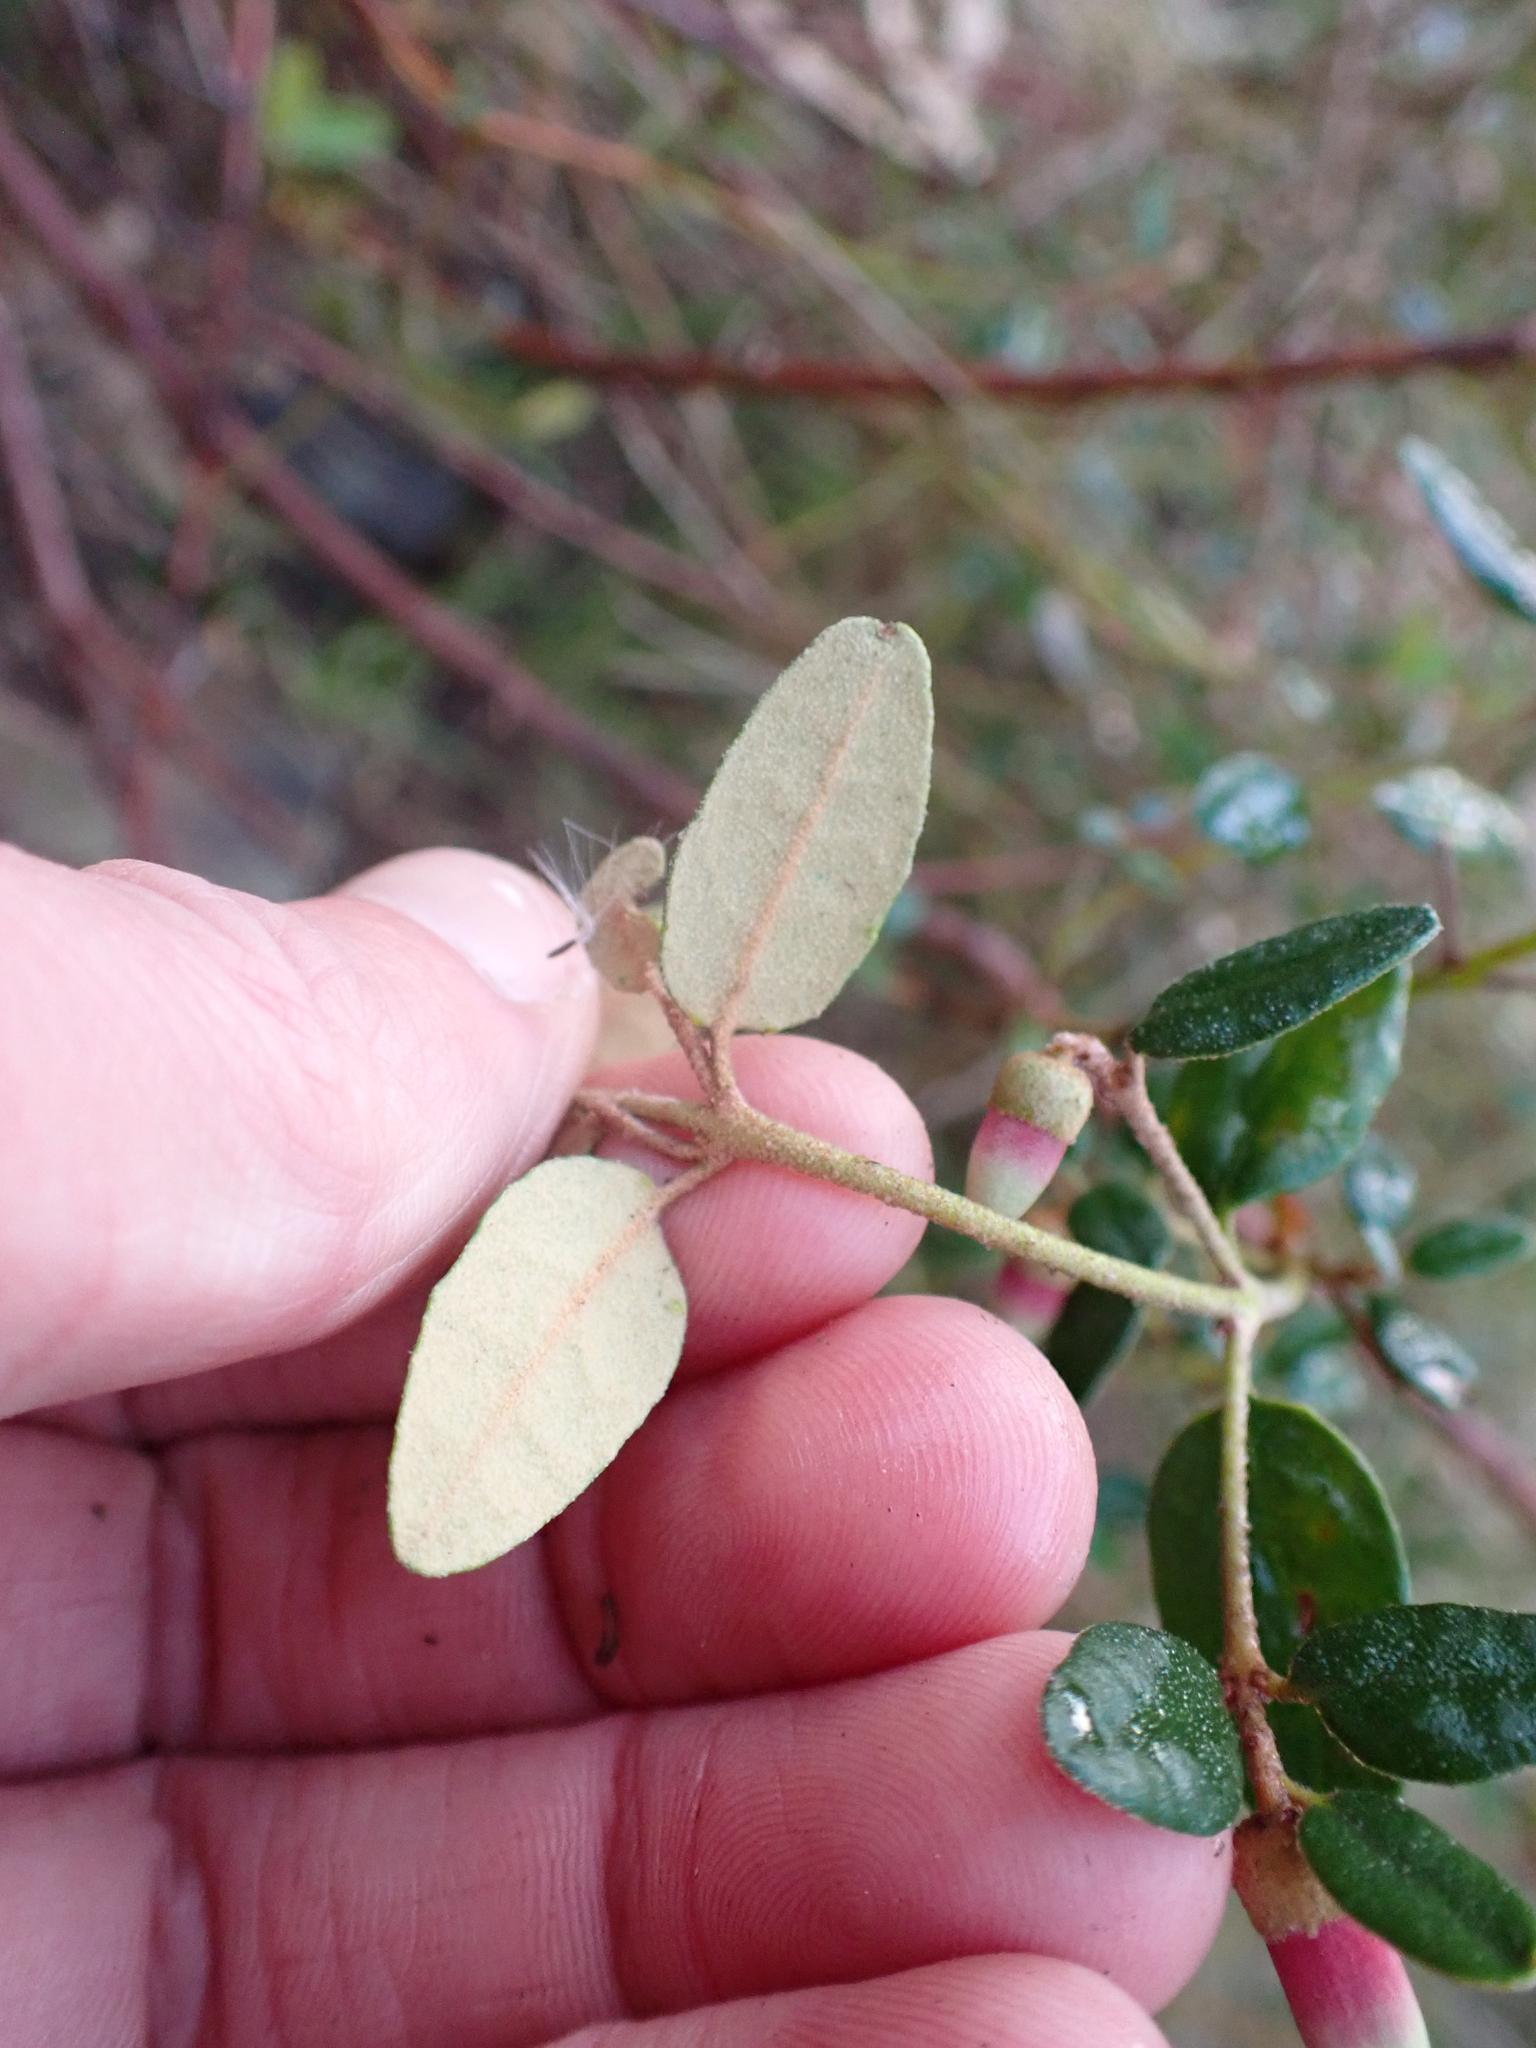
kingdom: Plantae
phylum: Tracheophyta
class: Magnoliopsida
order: Sapindales
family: Rutaceae
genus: Correa
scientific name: Correa reflexa
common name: Common correa
